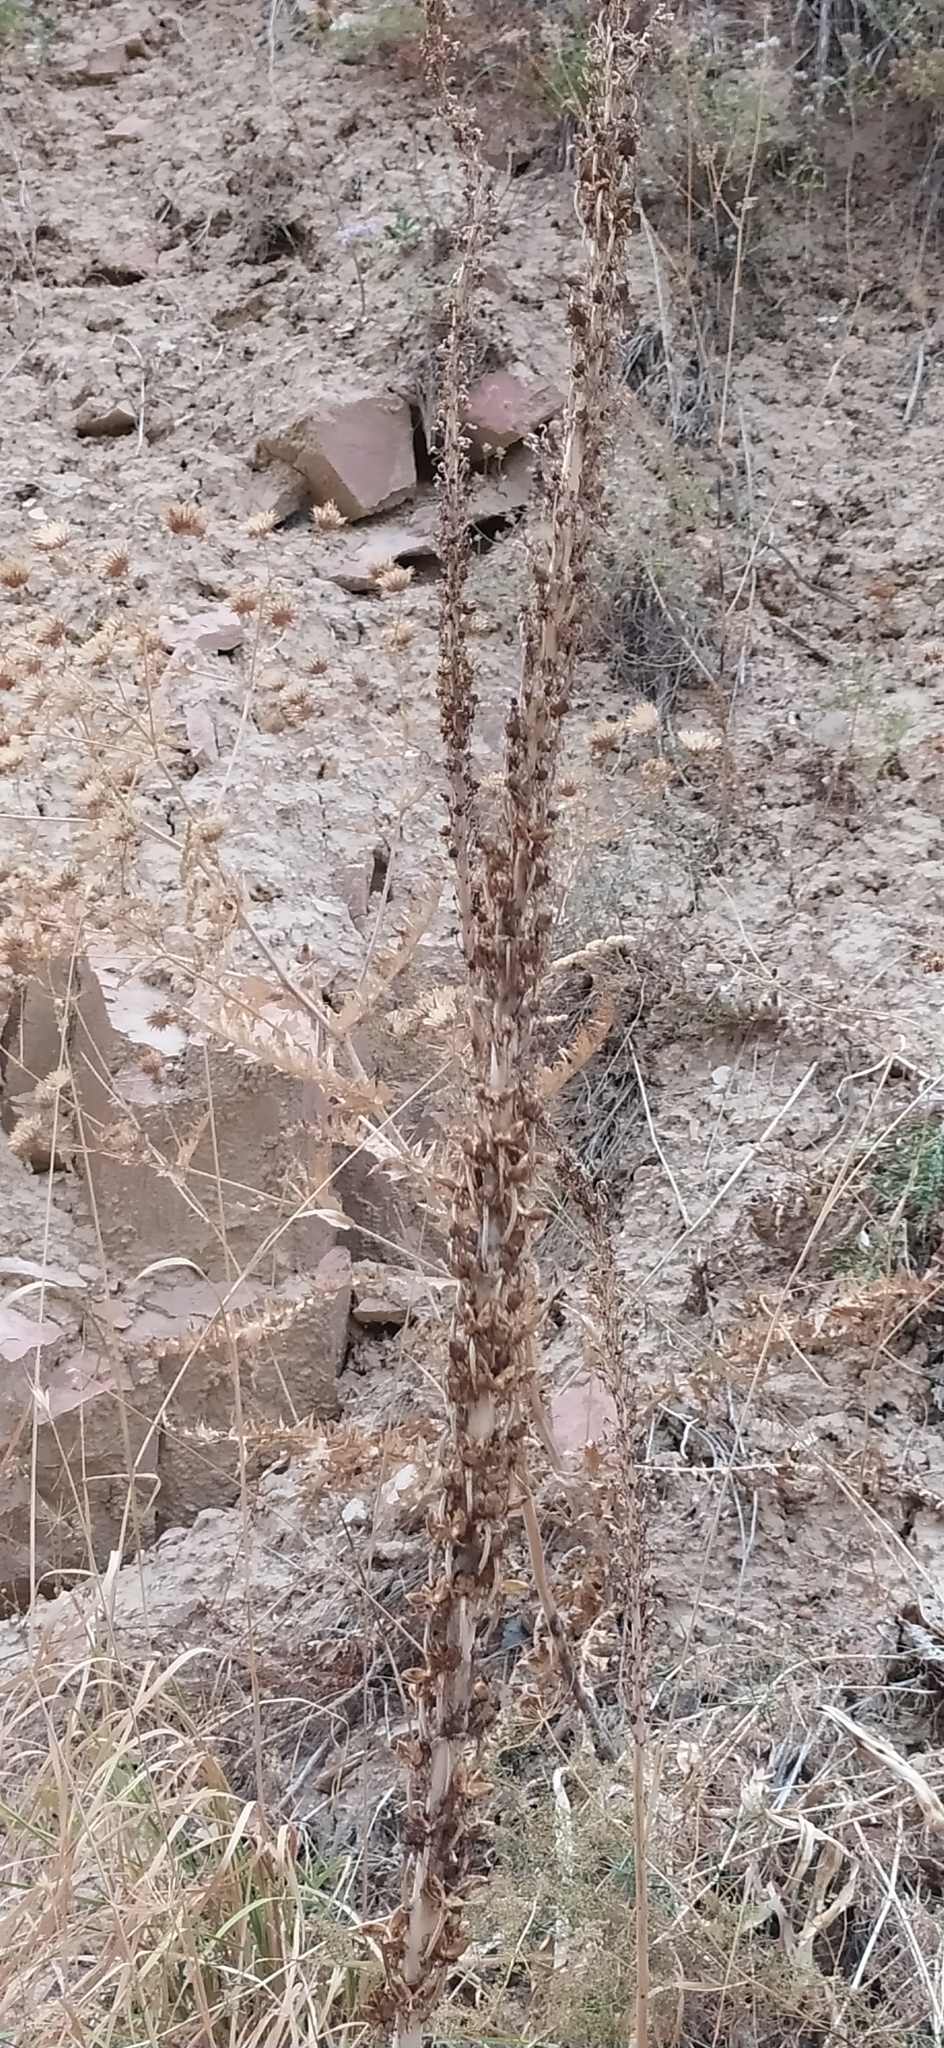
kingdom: Plantae
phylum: Tracheophyta
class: Liliopsida
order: Asparagales
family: Asphodelaceae
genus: Eremurus
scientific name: Eremurus regelii
